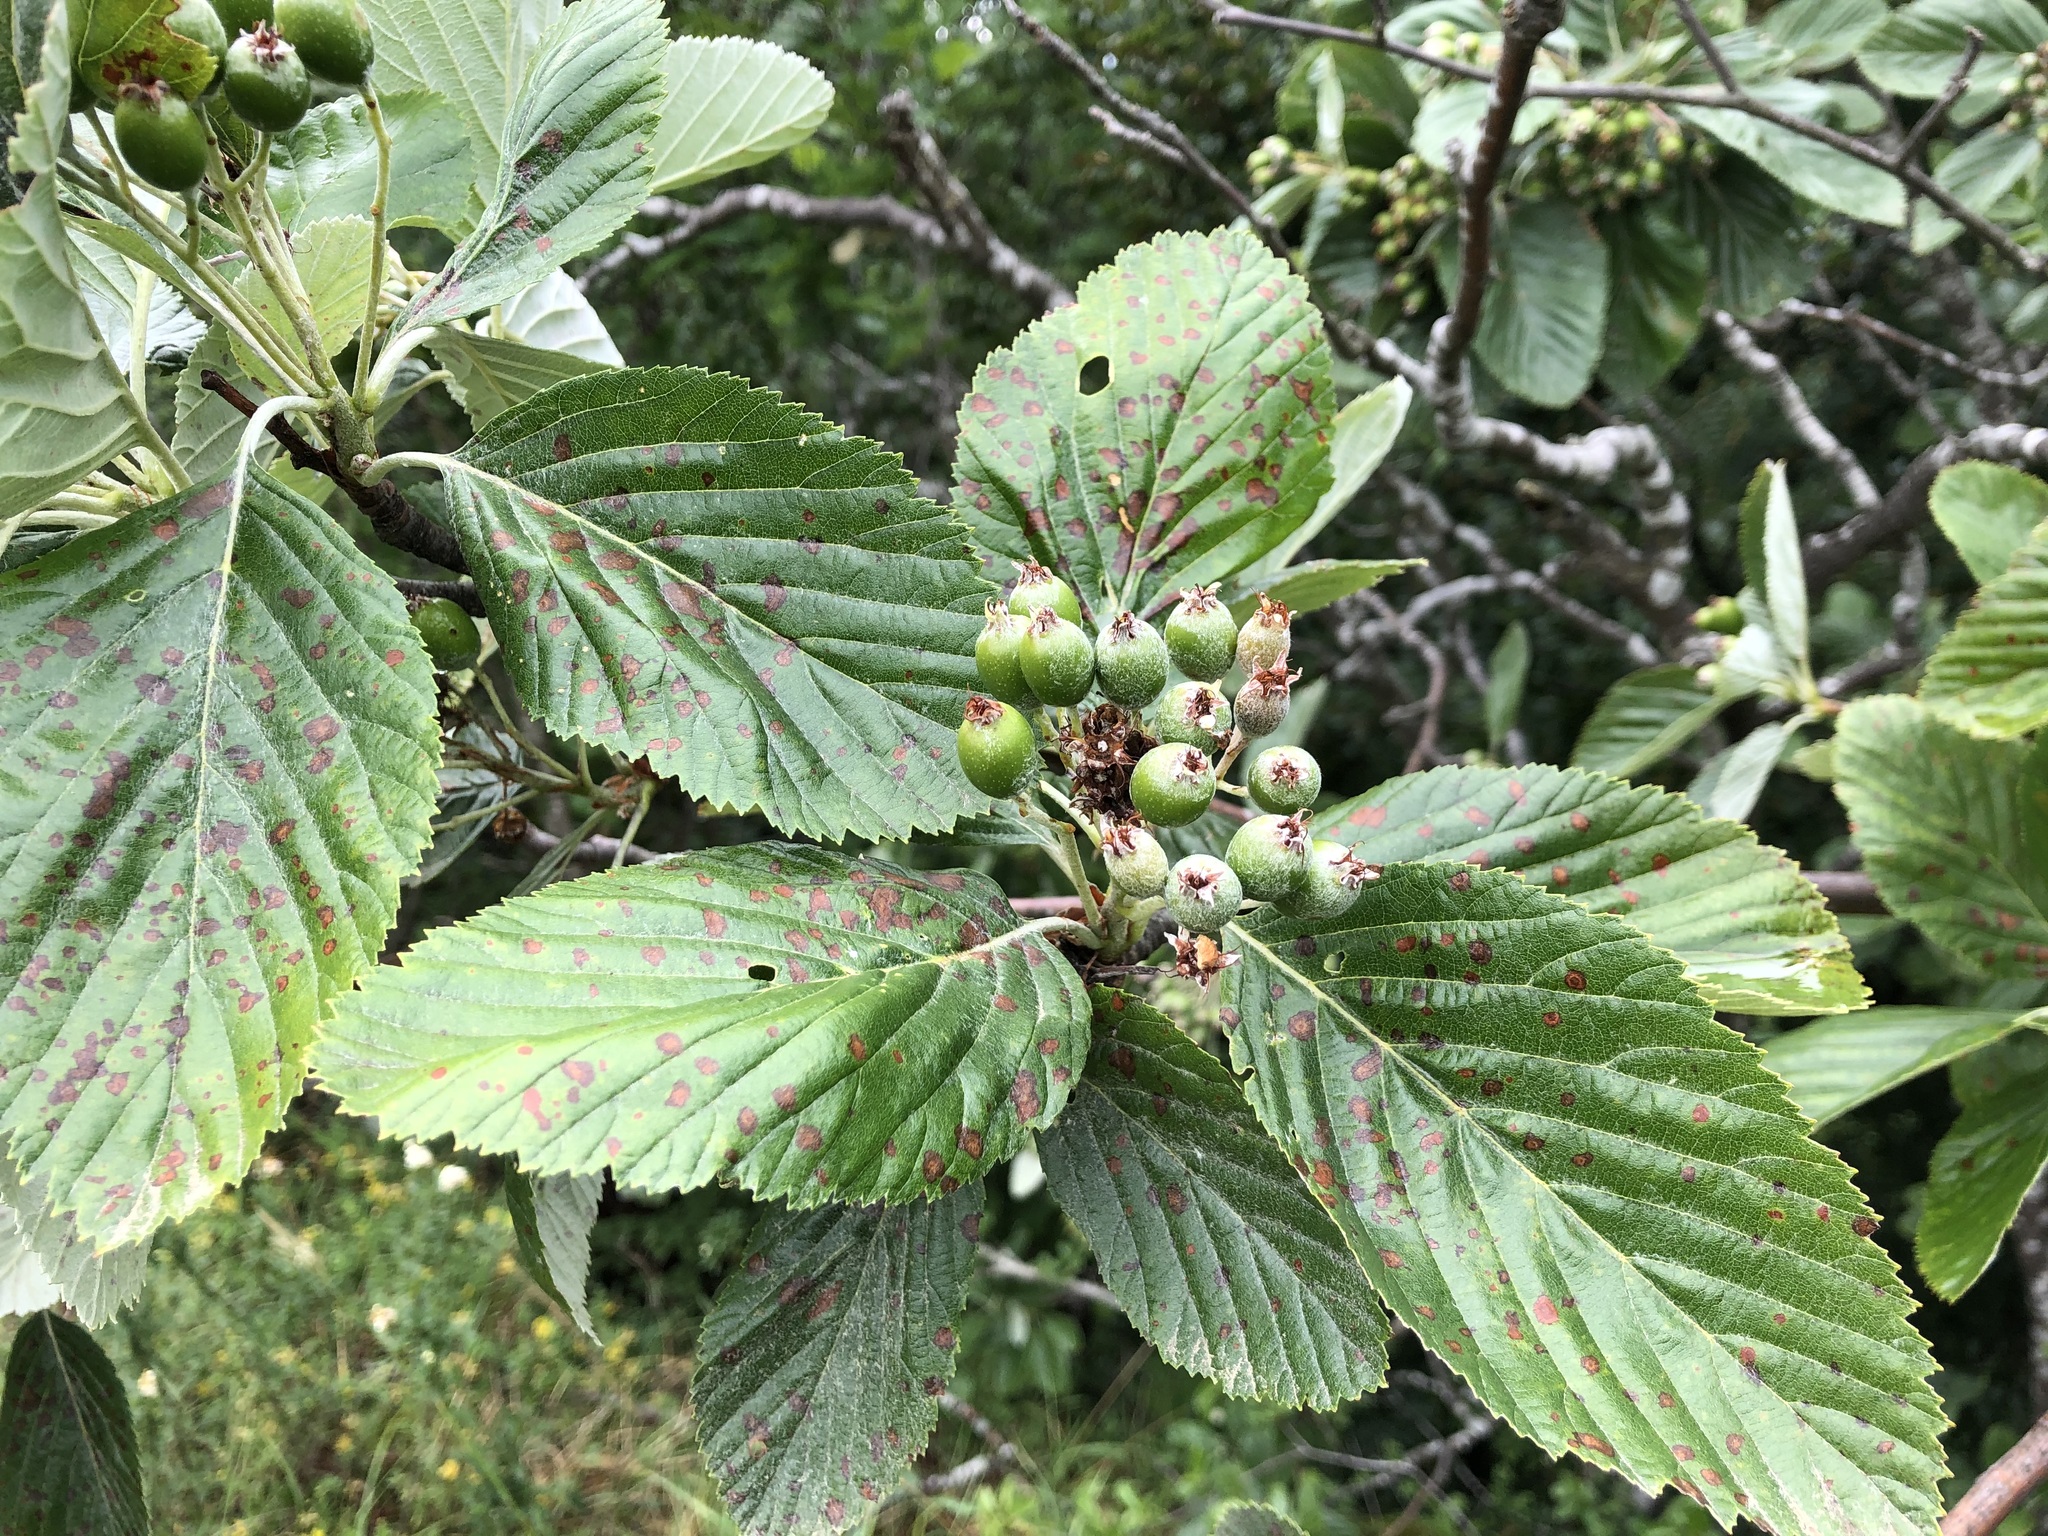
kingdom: Plantae
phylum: Tracheophyta
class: Magnoliopsida
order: Rosales
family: Rosaceae
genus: Aria
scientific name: Aria edulis
